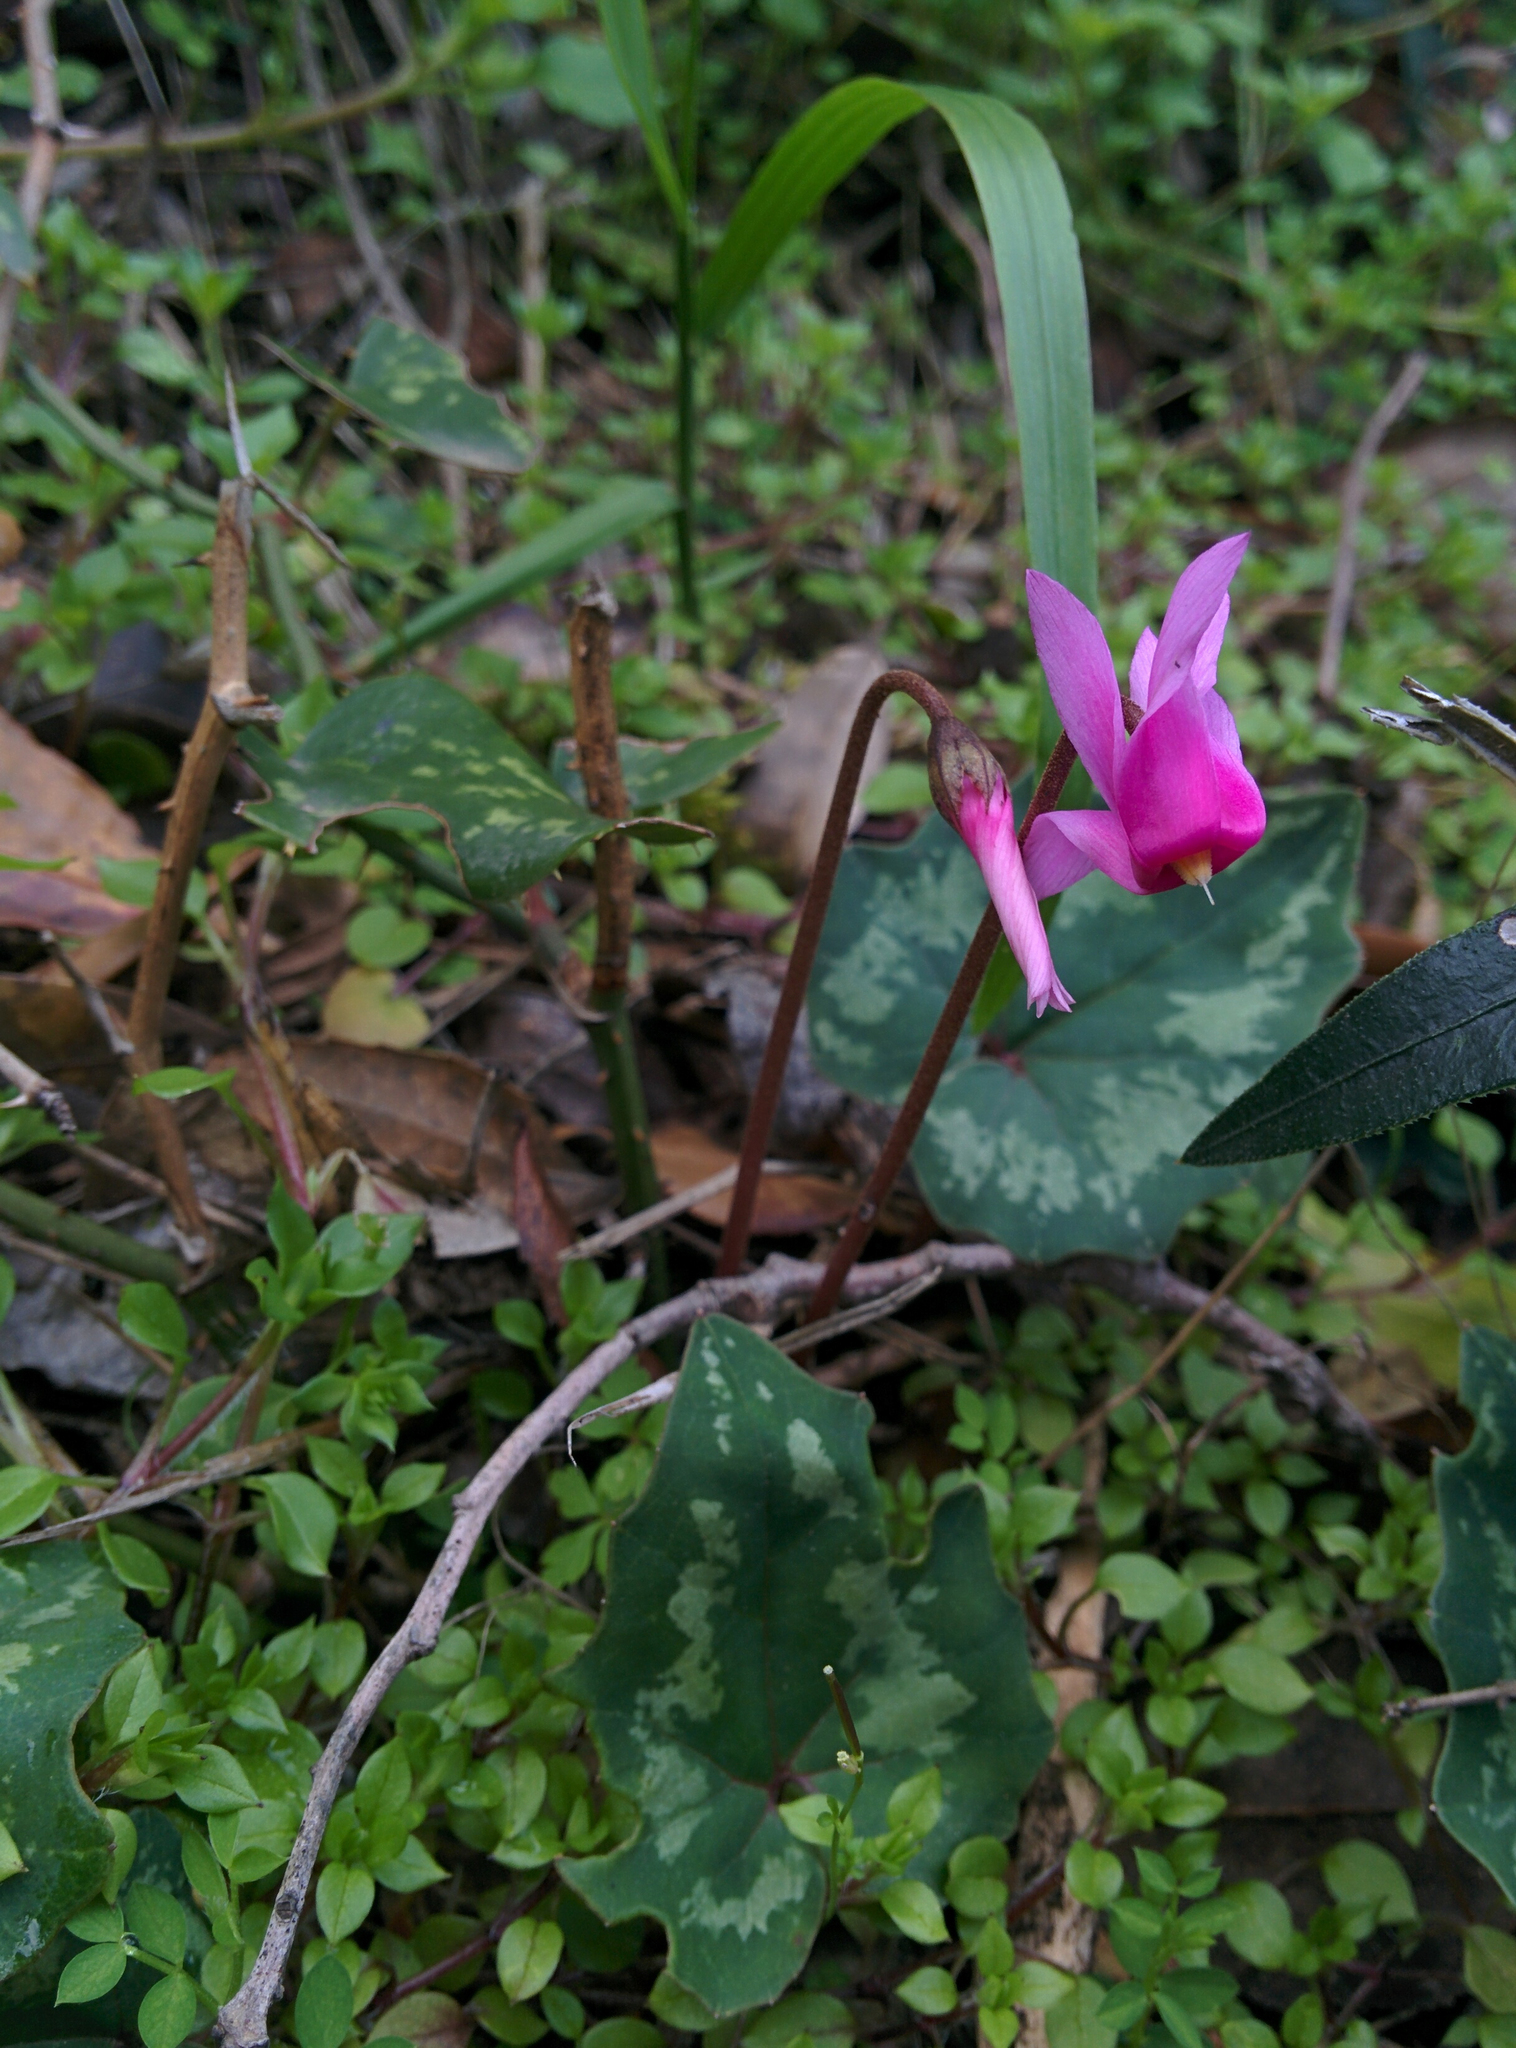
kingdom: Plantae
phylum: Tracheophyta
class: Magnoliopsida
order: Ericales
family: Primulaceae
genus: Cyclamen
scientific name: Cyclamen repandum
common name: Spring sowbread
